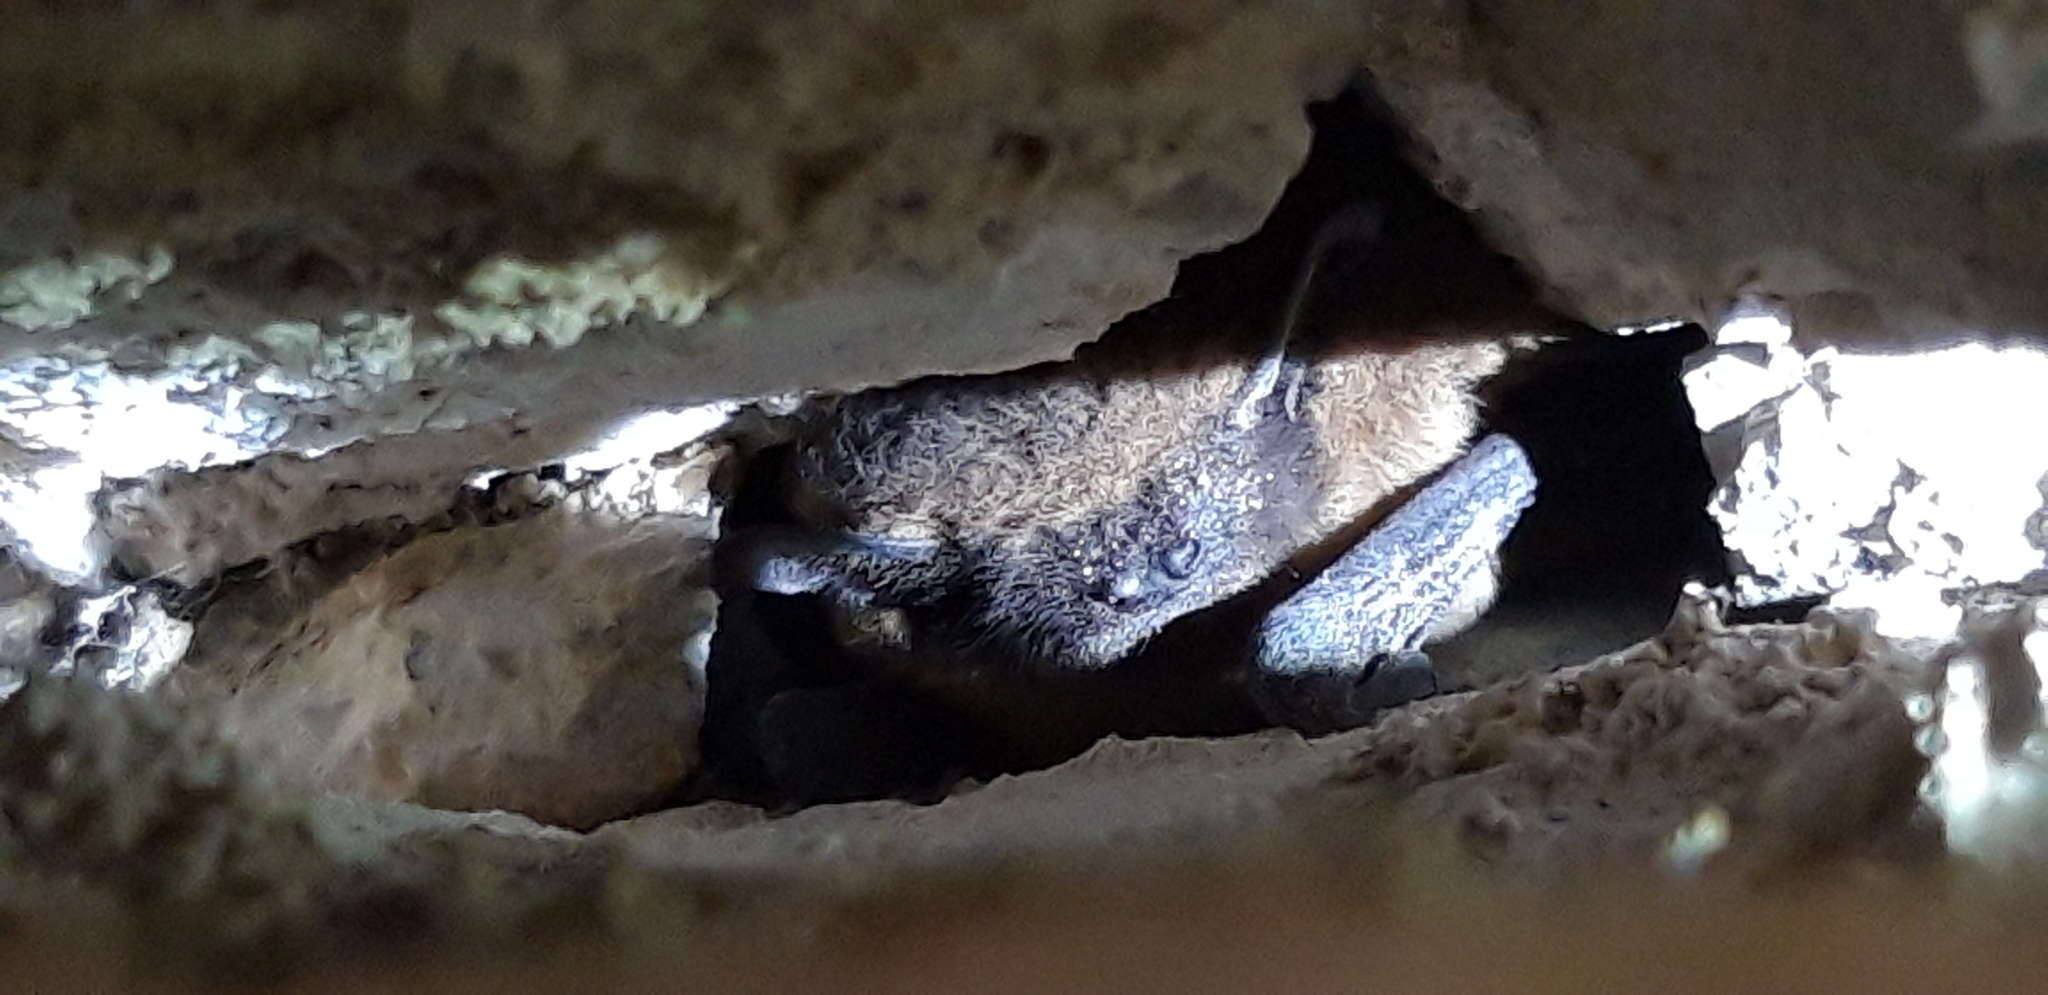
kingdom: Animalia
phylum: Chordata
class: Mammalia
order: Chiroptera
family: Vespertilionidae
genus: Pipistrellus
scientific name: Pipistrellus
